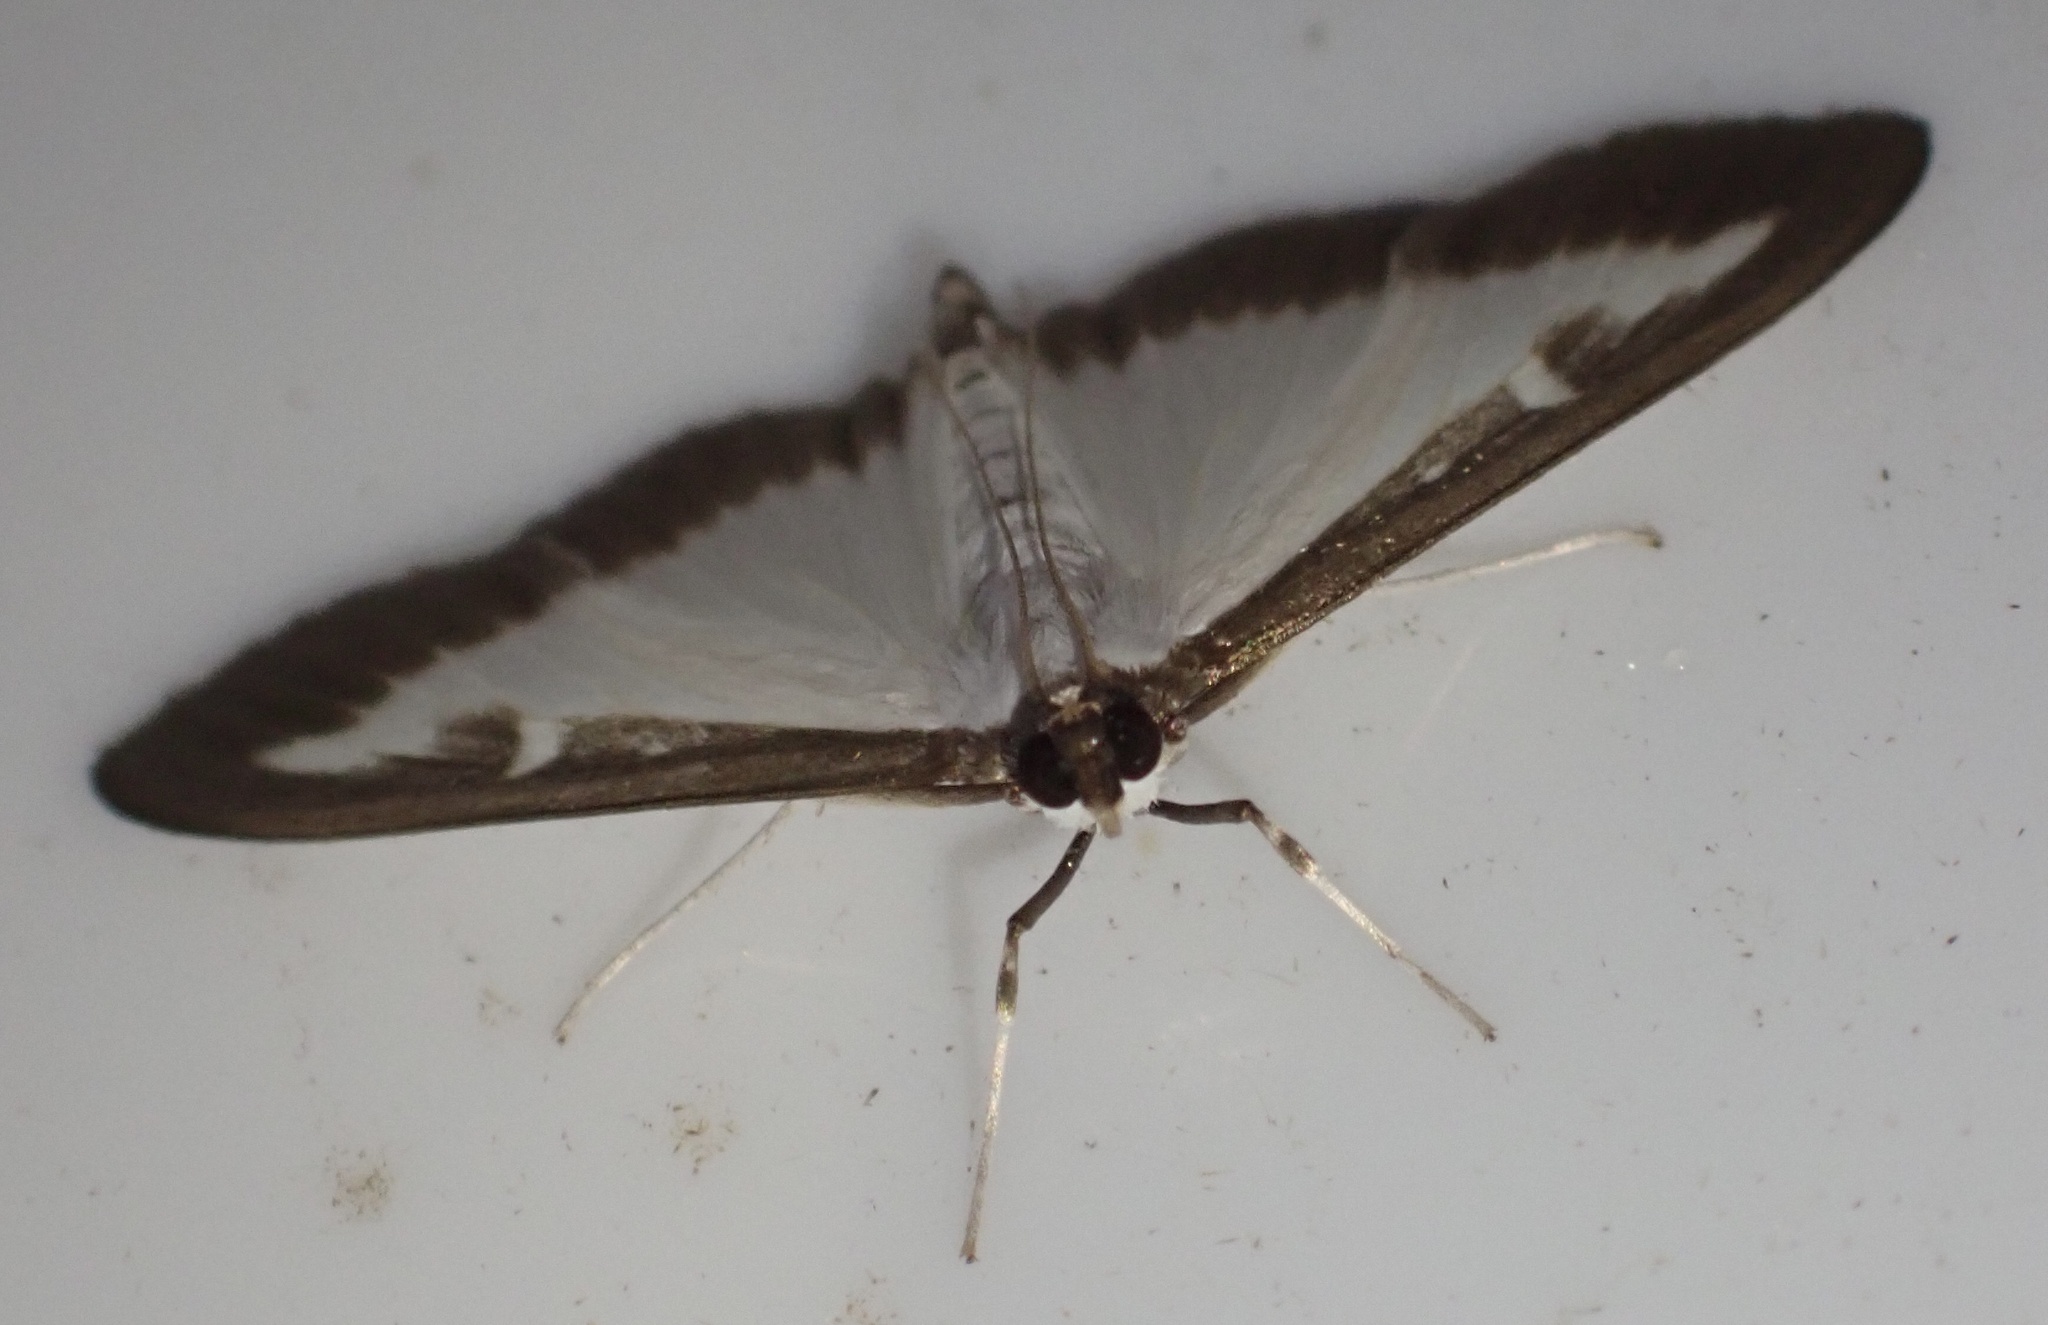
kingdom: Animalia
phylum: Arthropoda
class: Insecta
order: Lepidoptera
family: Crambidae
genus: Cydalima
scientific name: Cydalima perspectalis
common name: Box tree moth
